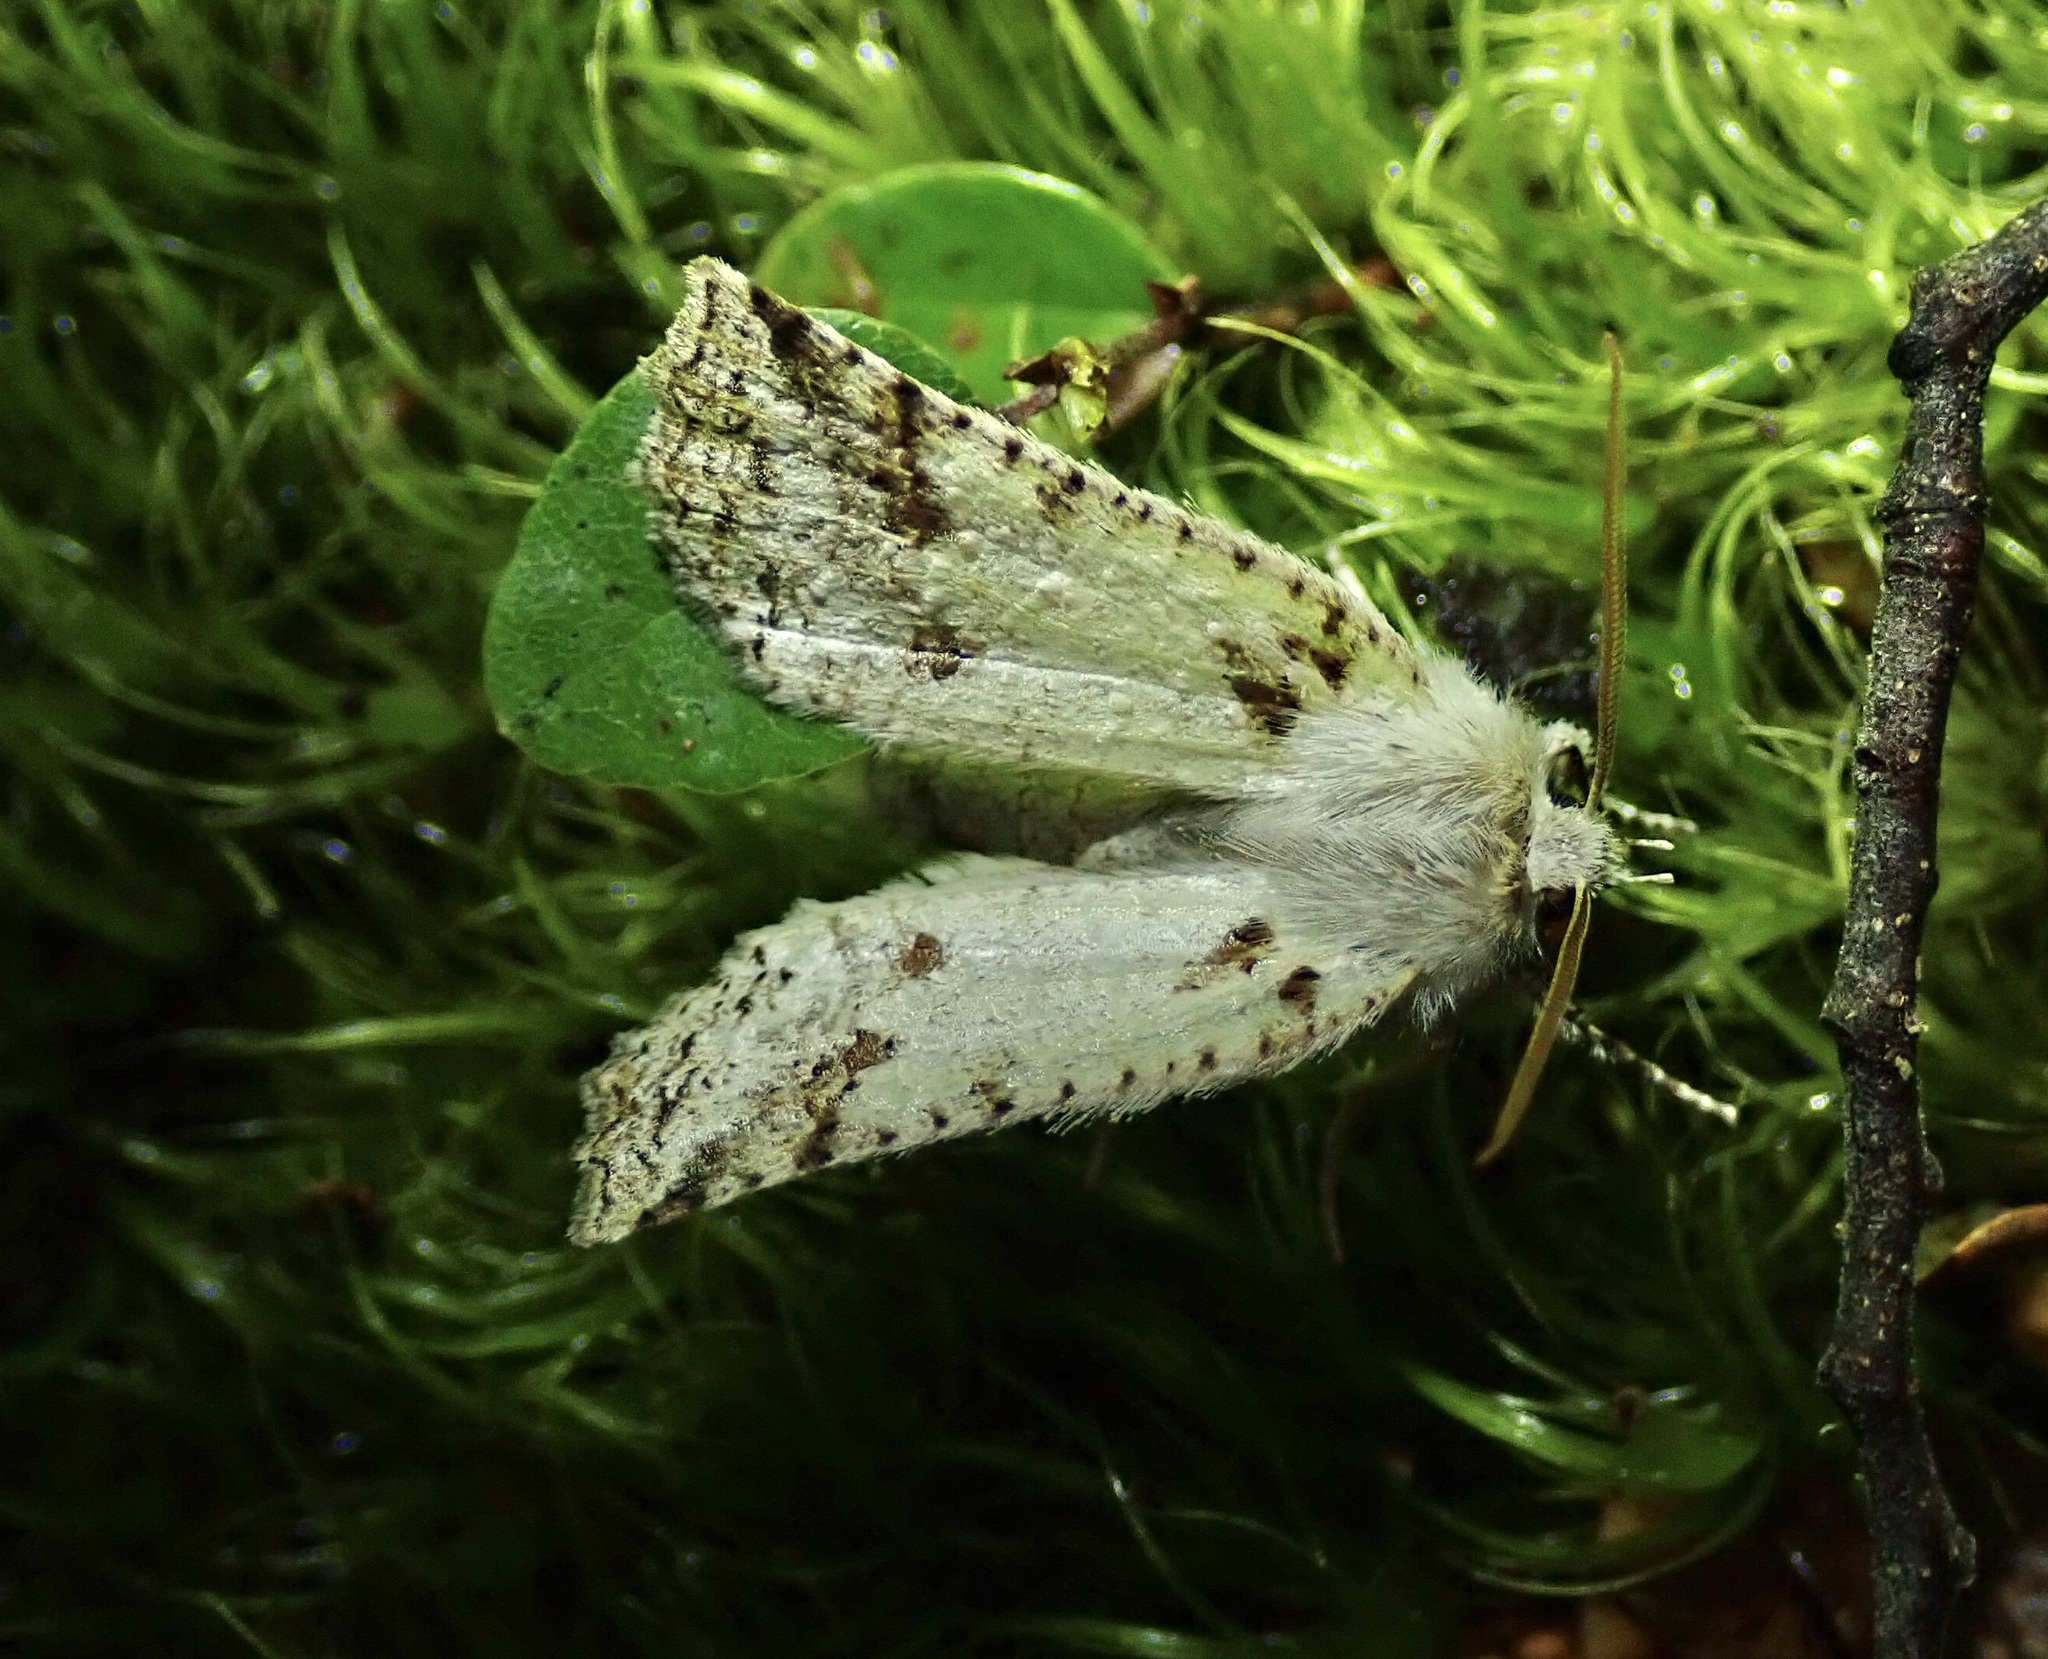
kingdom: Animalia
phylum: Arthropoda
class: Insecta
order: Lepidoptera
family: Geometridae
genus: Declana
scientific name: Declana floccosa
